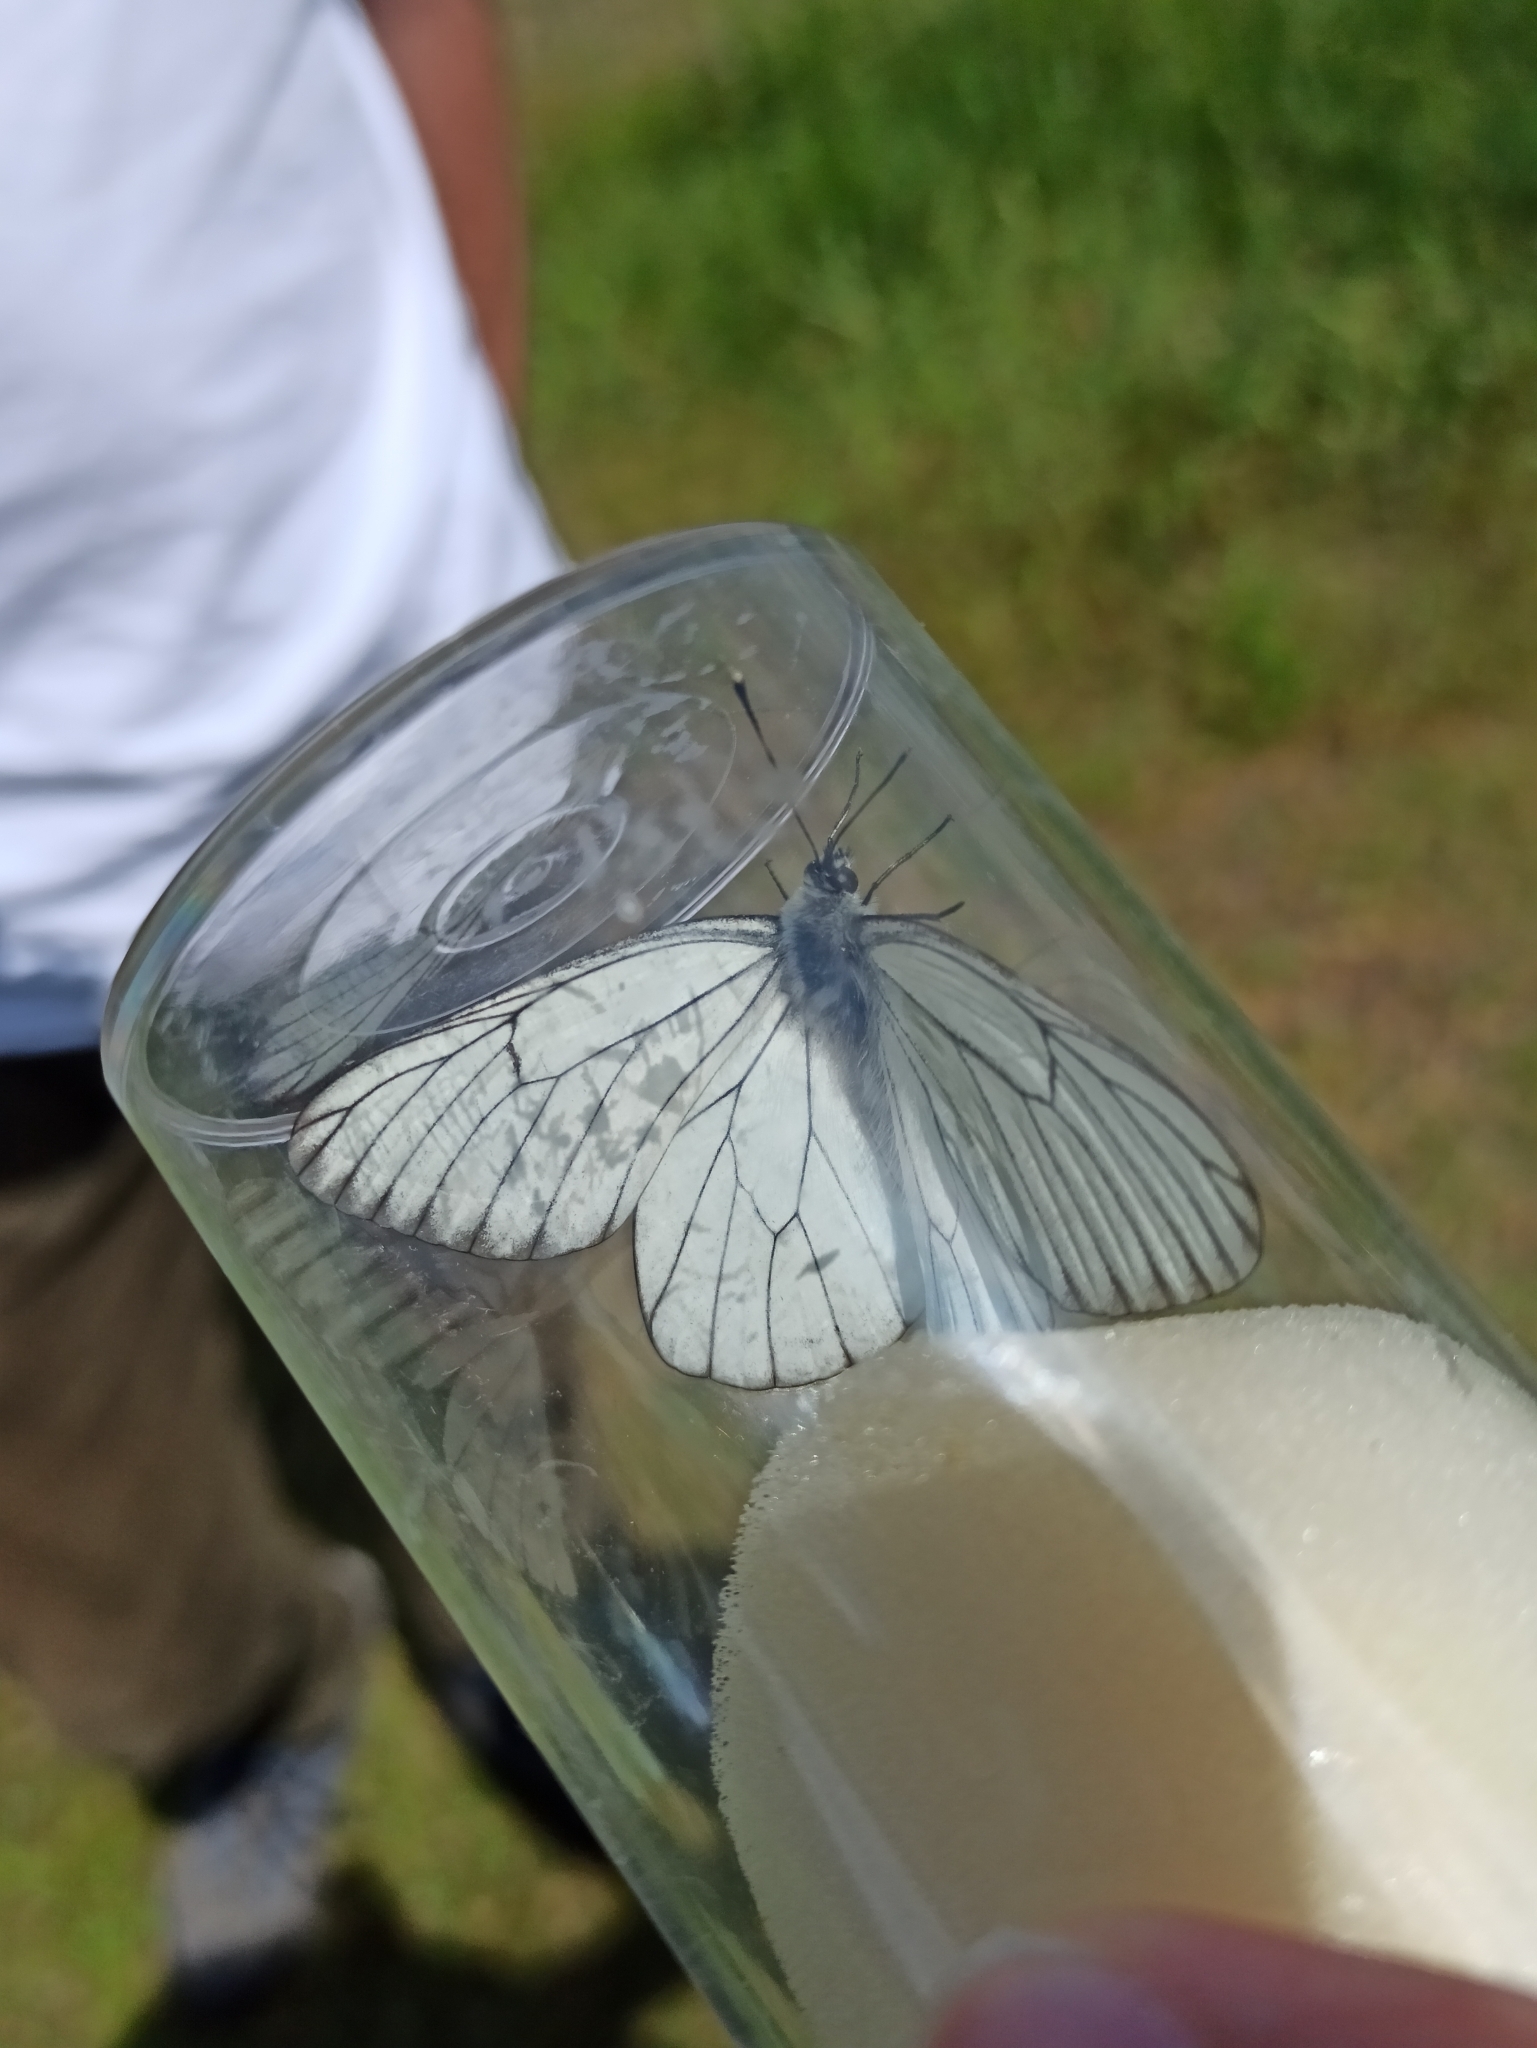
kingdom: Animalia
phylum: Arthropoda
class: Insecta
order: Lepidoptera
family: Pieridae
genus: Aporia
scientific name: Aporia crataegi
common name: Black-veined white
